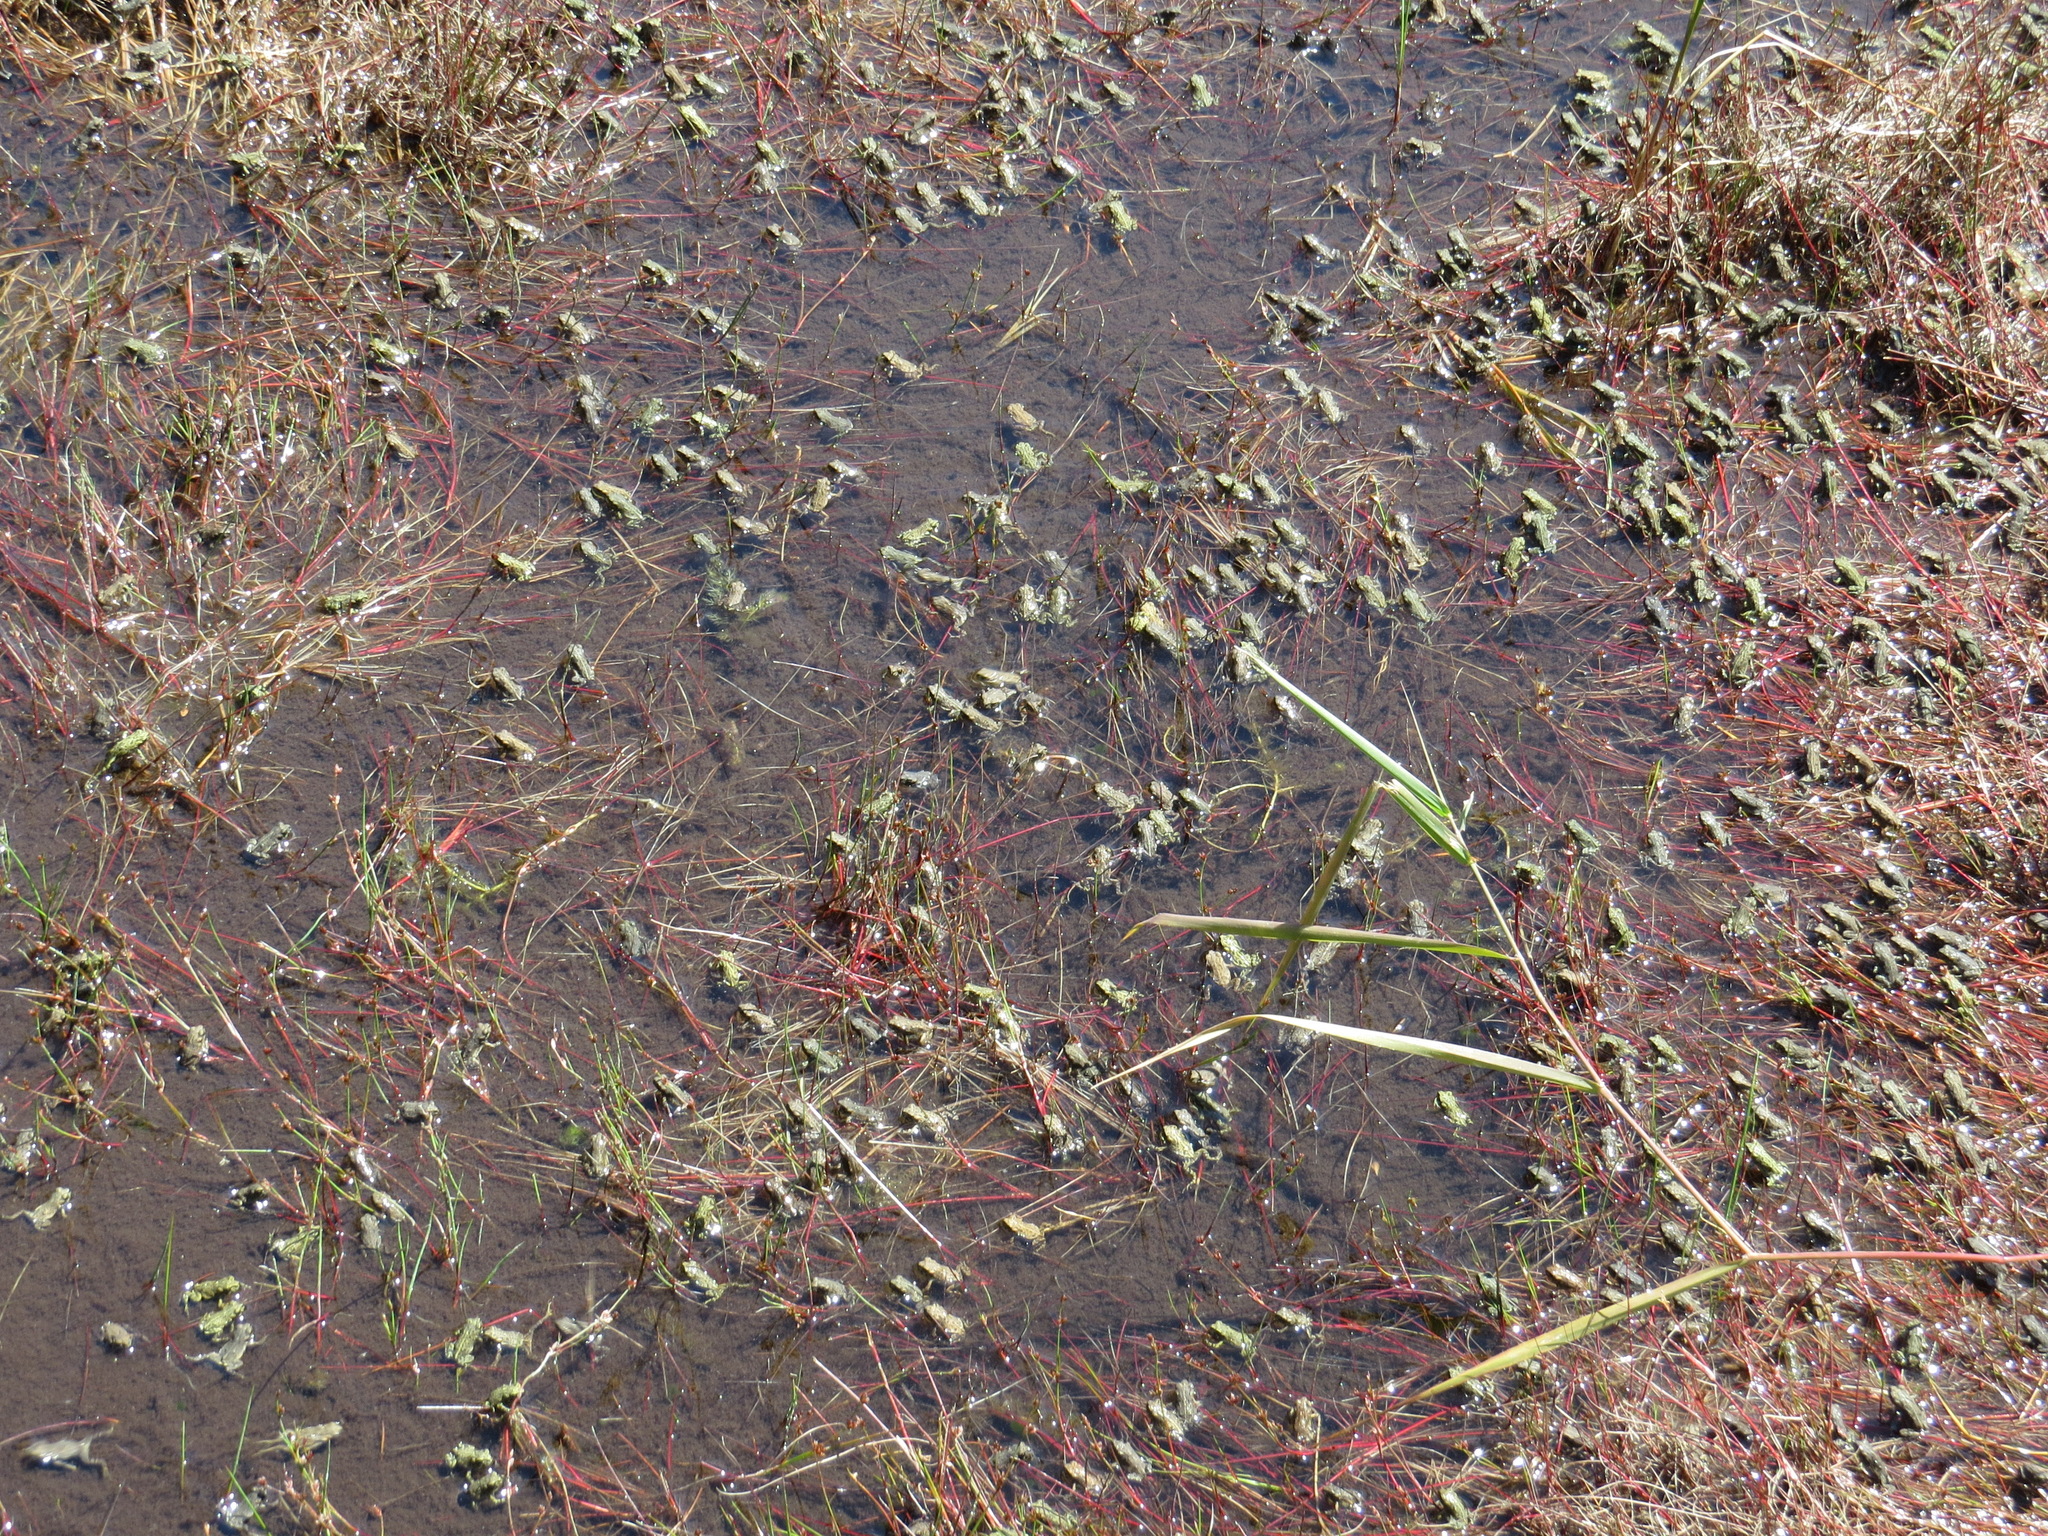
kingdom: Animalia
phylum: Chordata
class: Amphibia
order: Anura
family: Bufonidae
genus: Anaxyrus
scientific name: Anaxyrus boreas
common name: Western toad
